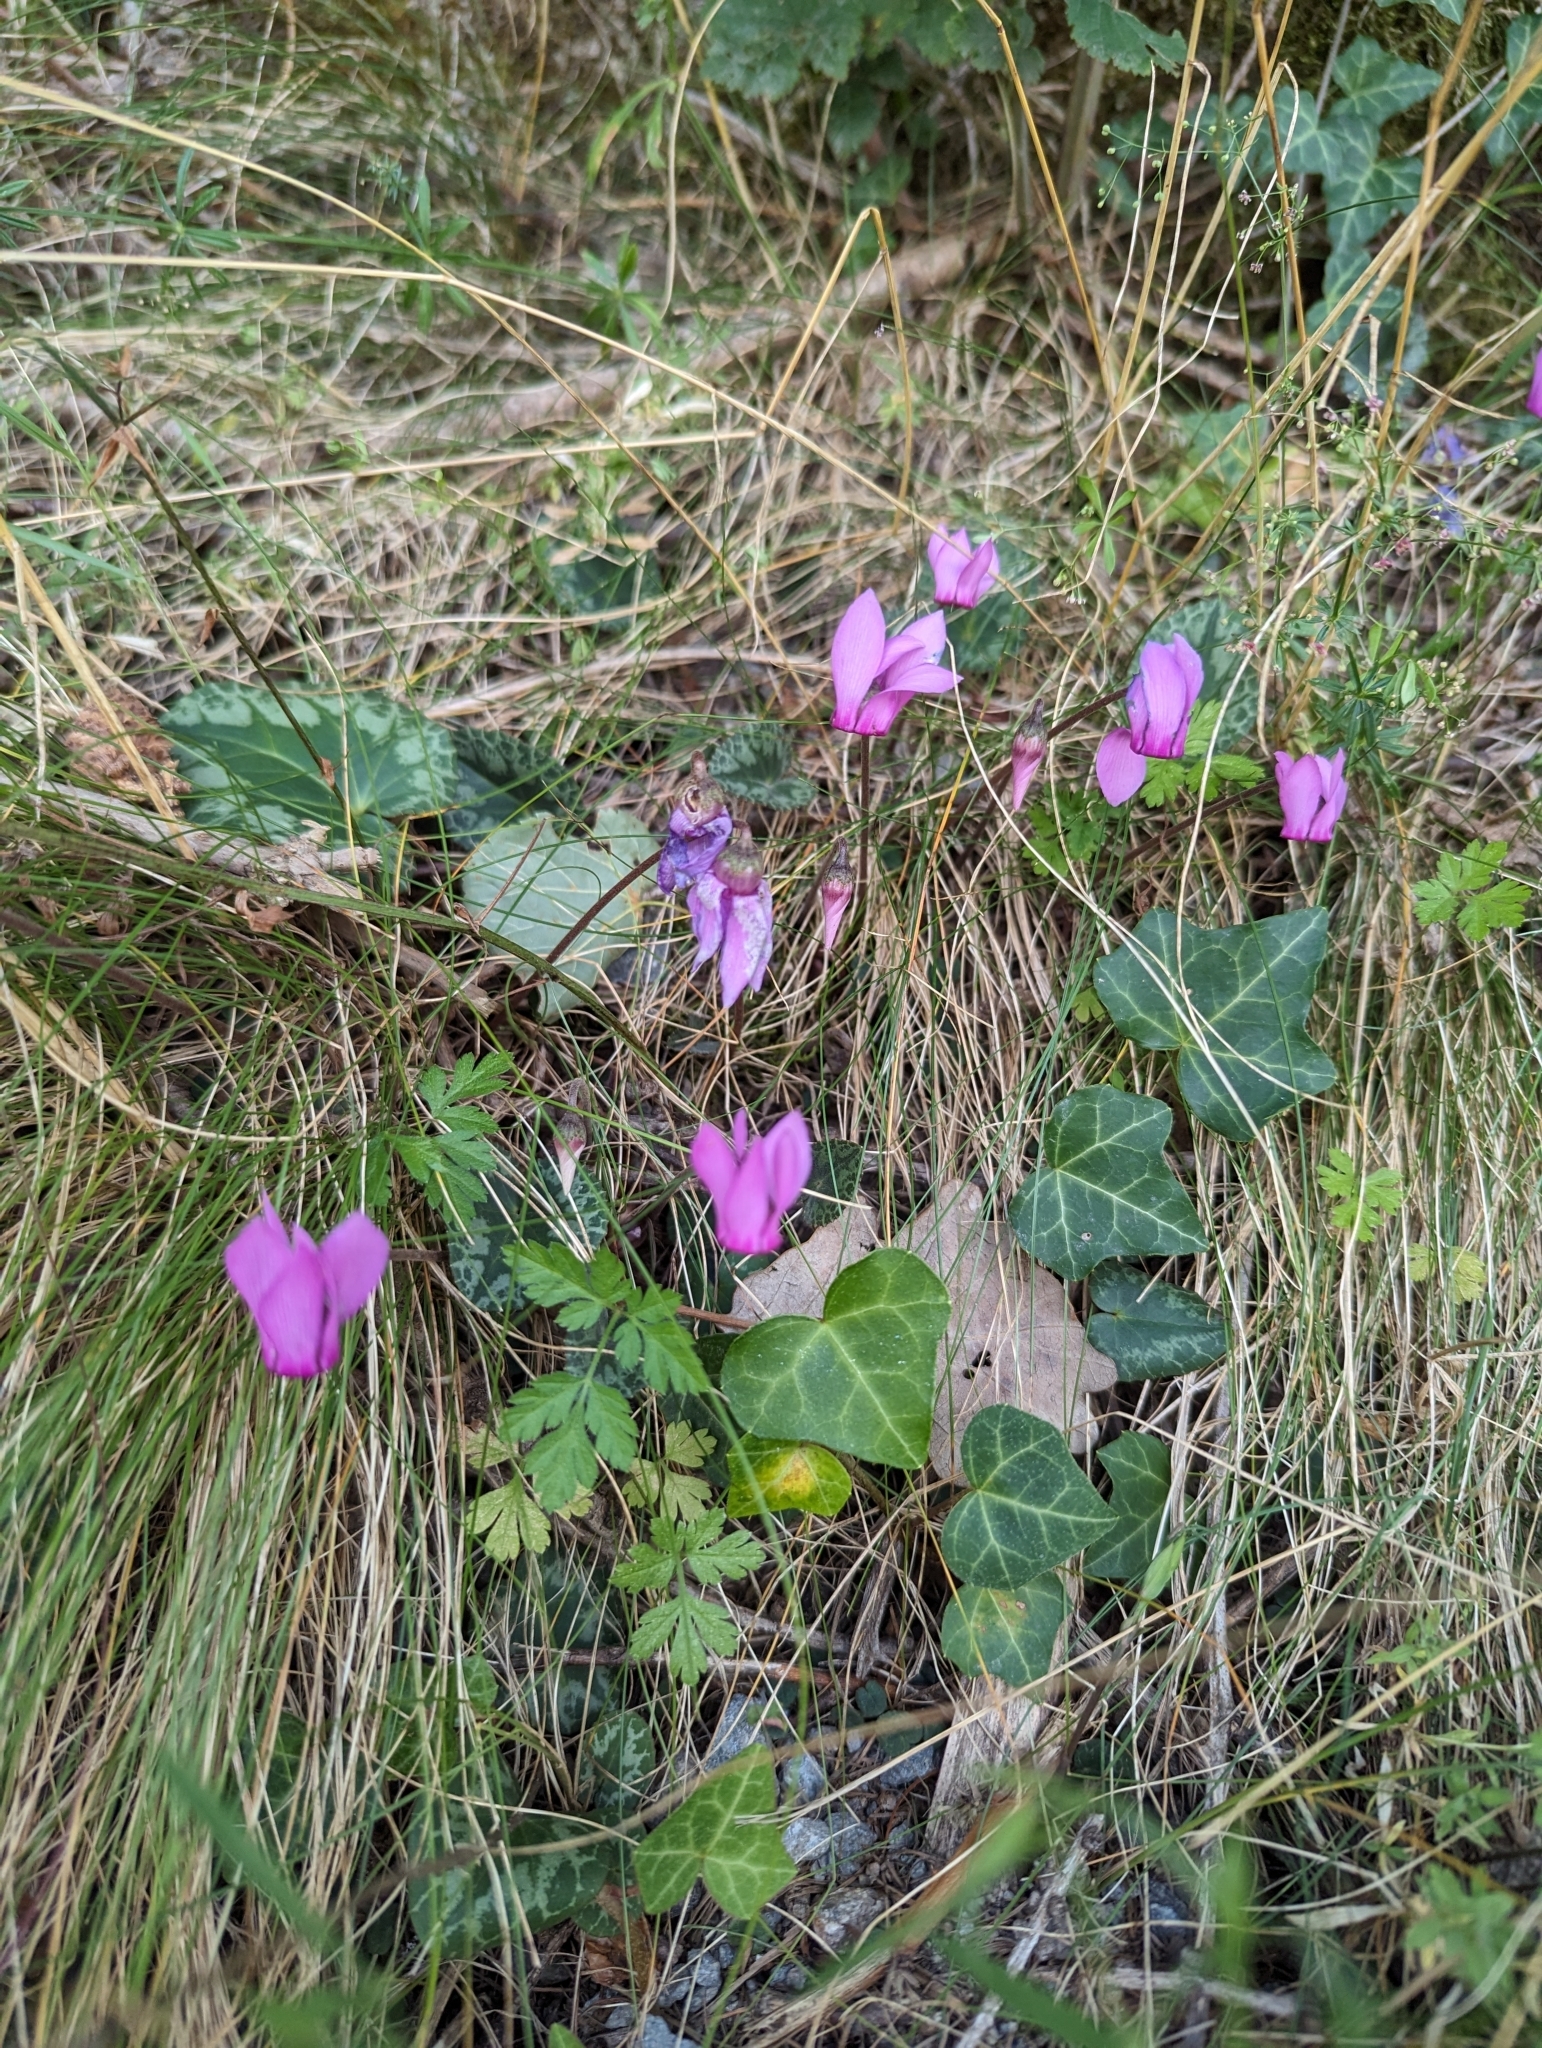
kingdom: Plantae
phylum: Tracheophyta
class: Magnoliopsida
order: Ericales
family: Primulaceae
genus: Cyclamen
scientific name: Cyclamen purpurascens
